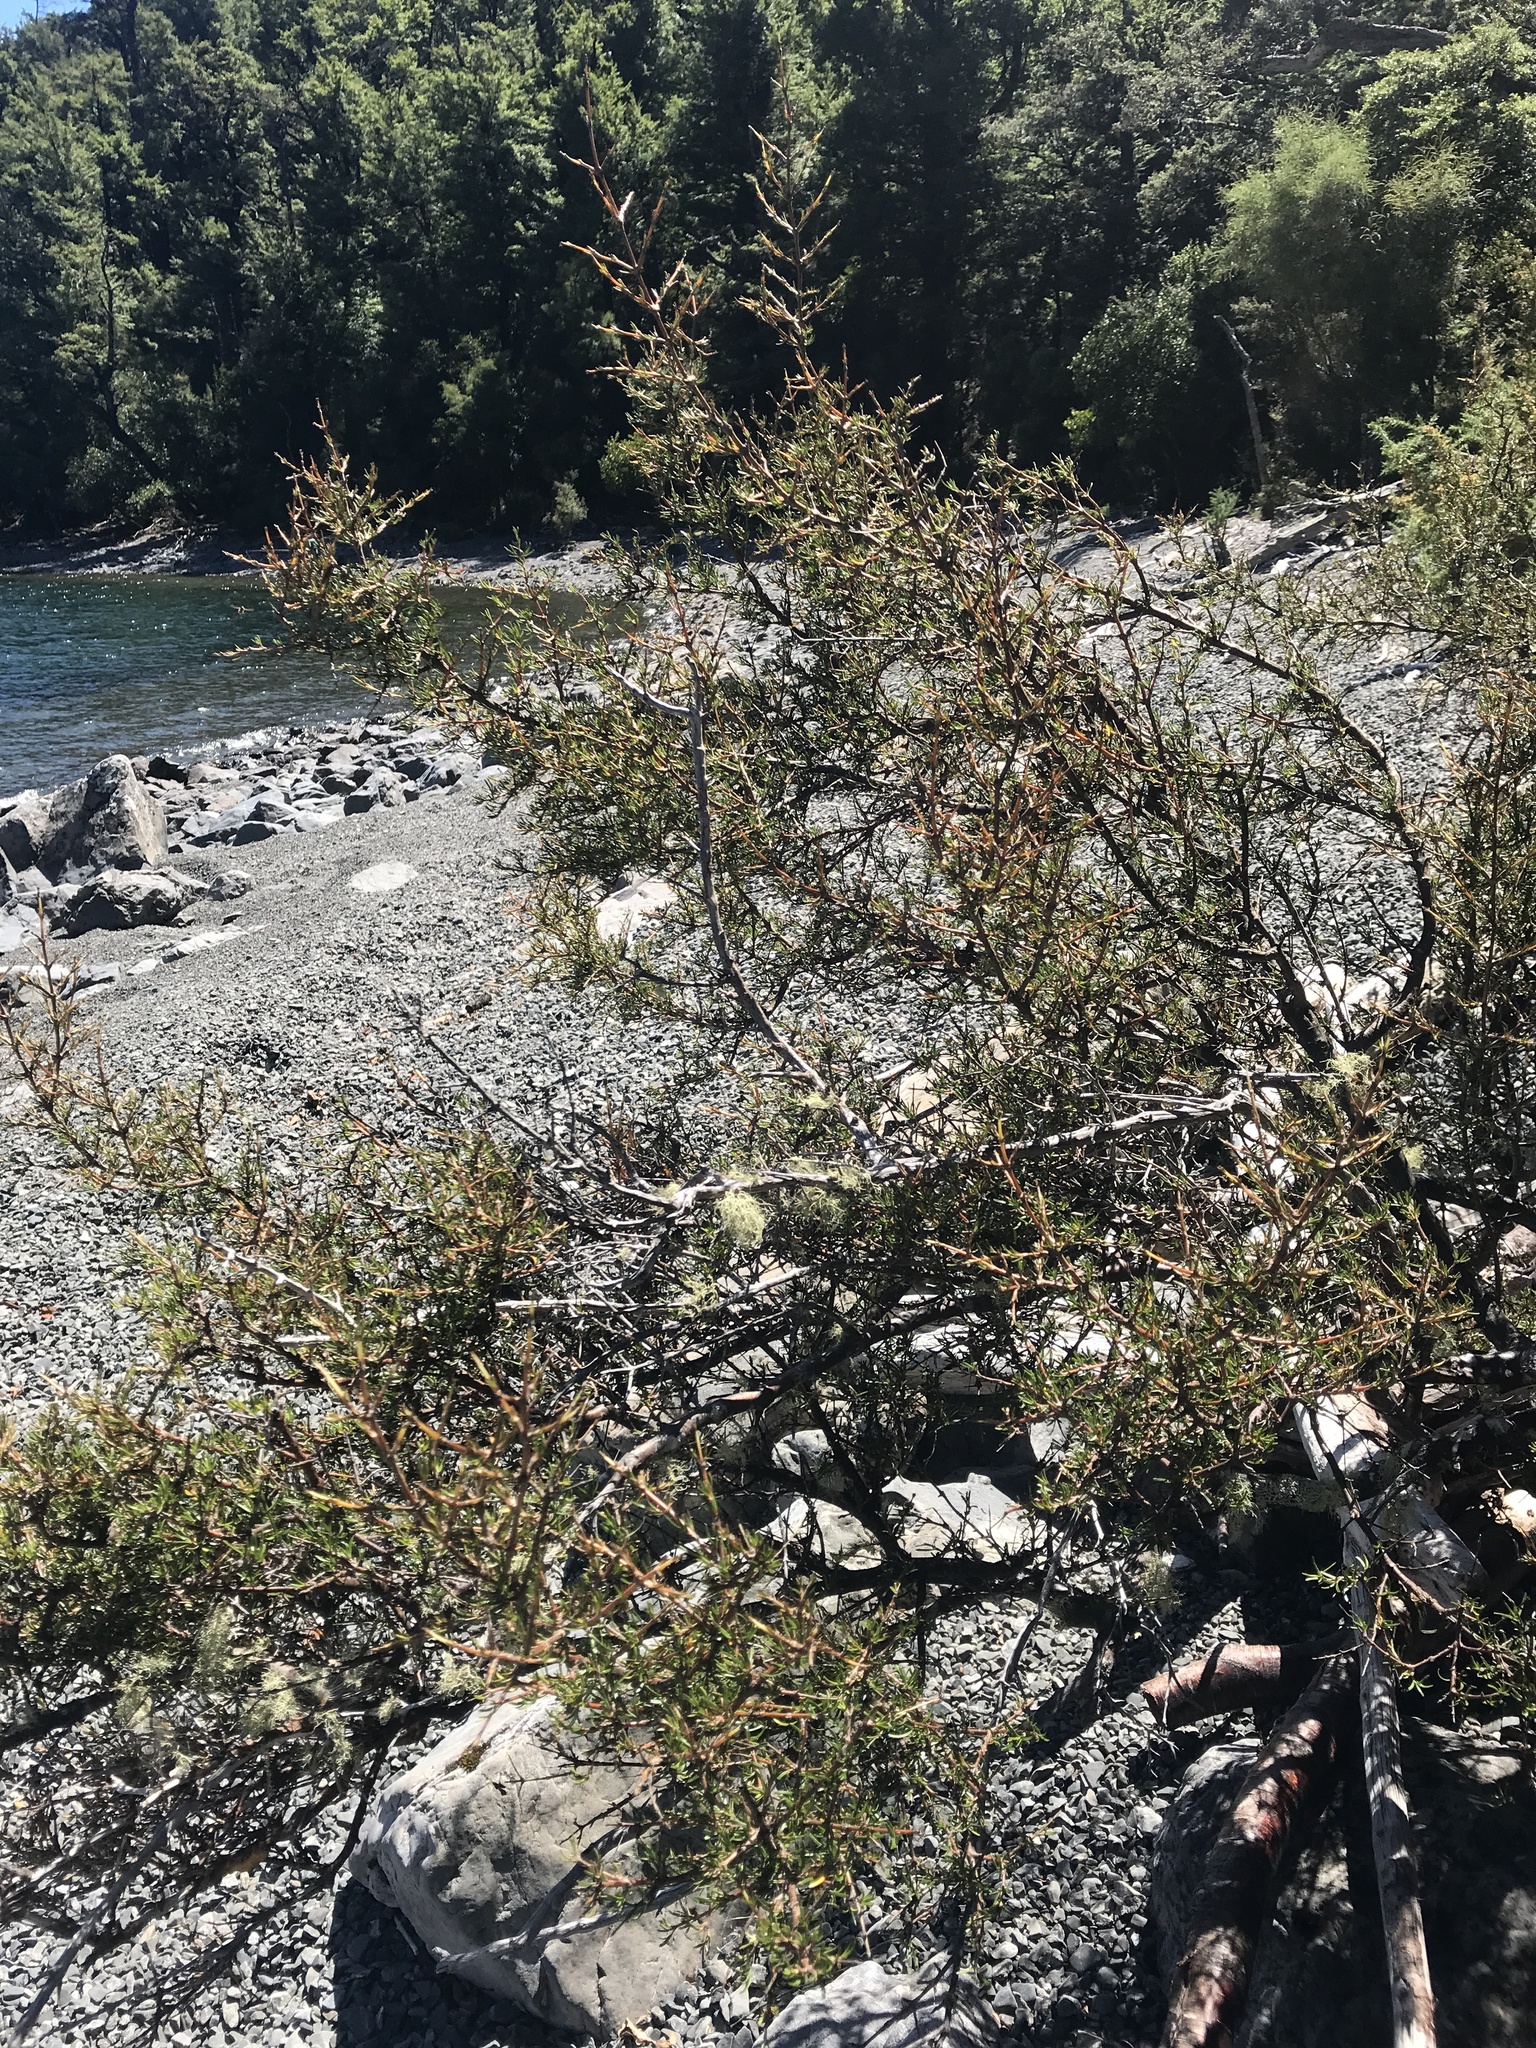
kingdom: Plantae
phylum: Tracheophyta
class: Magnoliopsida
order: Gentianales
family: Rubiaceae
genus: Coprosma
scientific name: Coprosma rugosa
